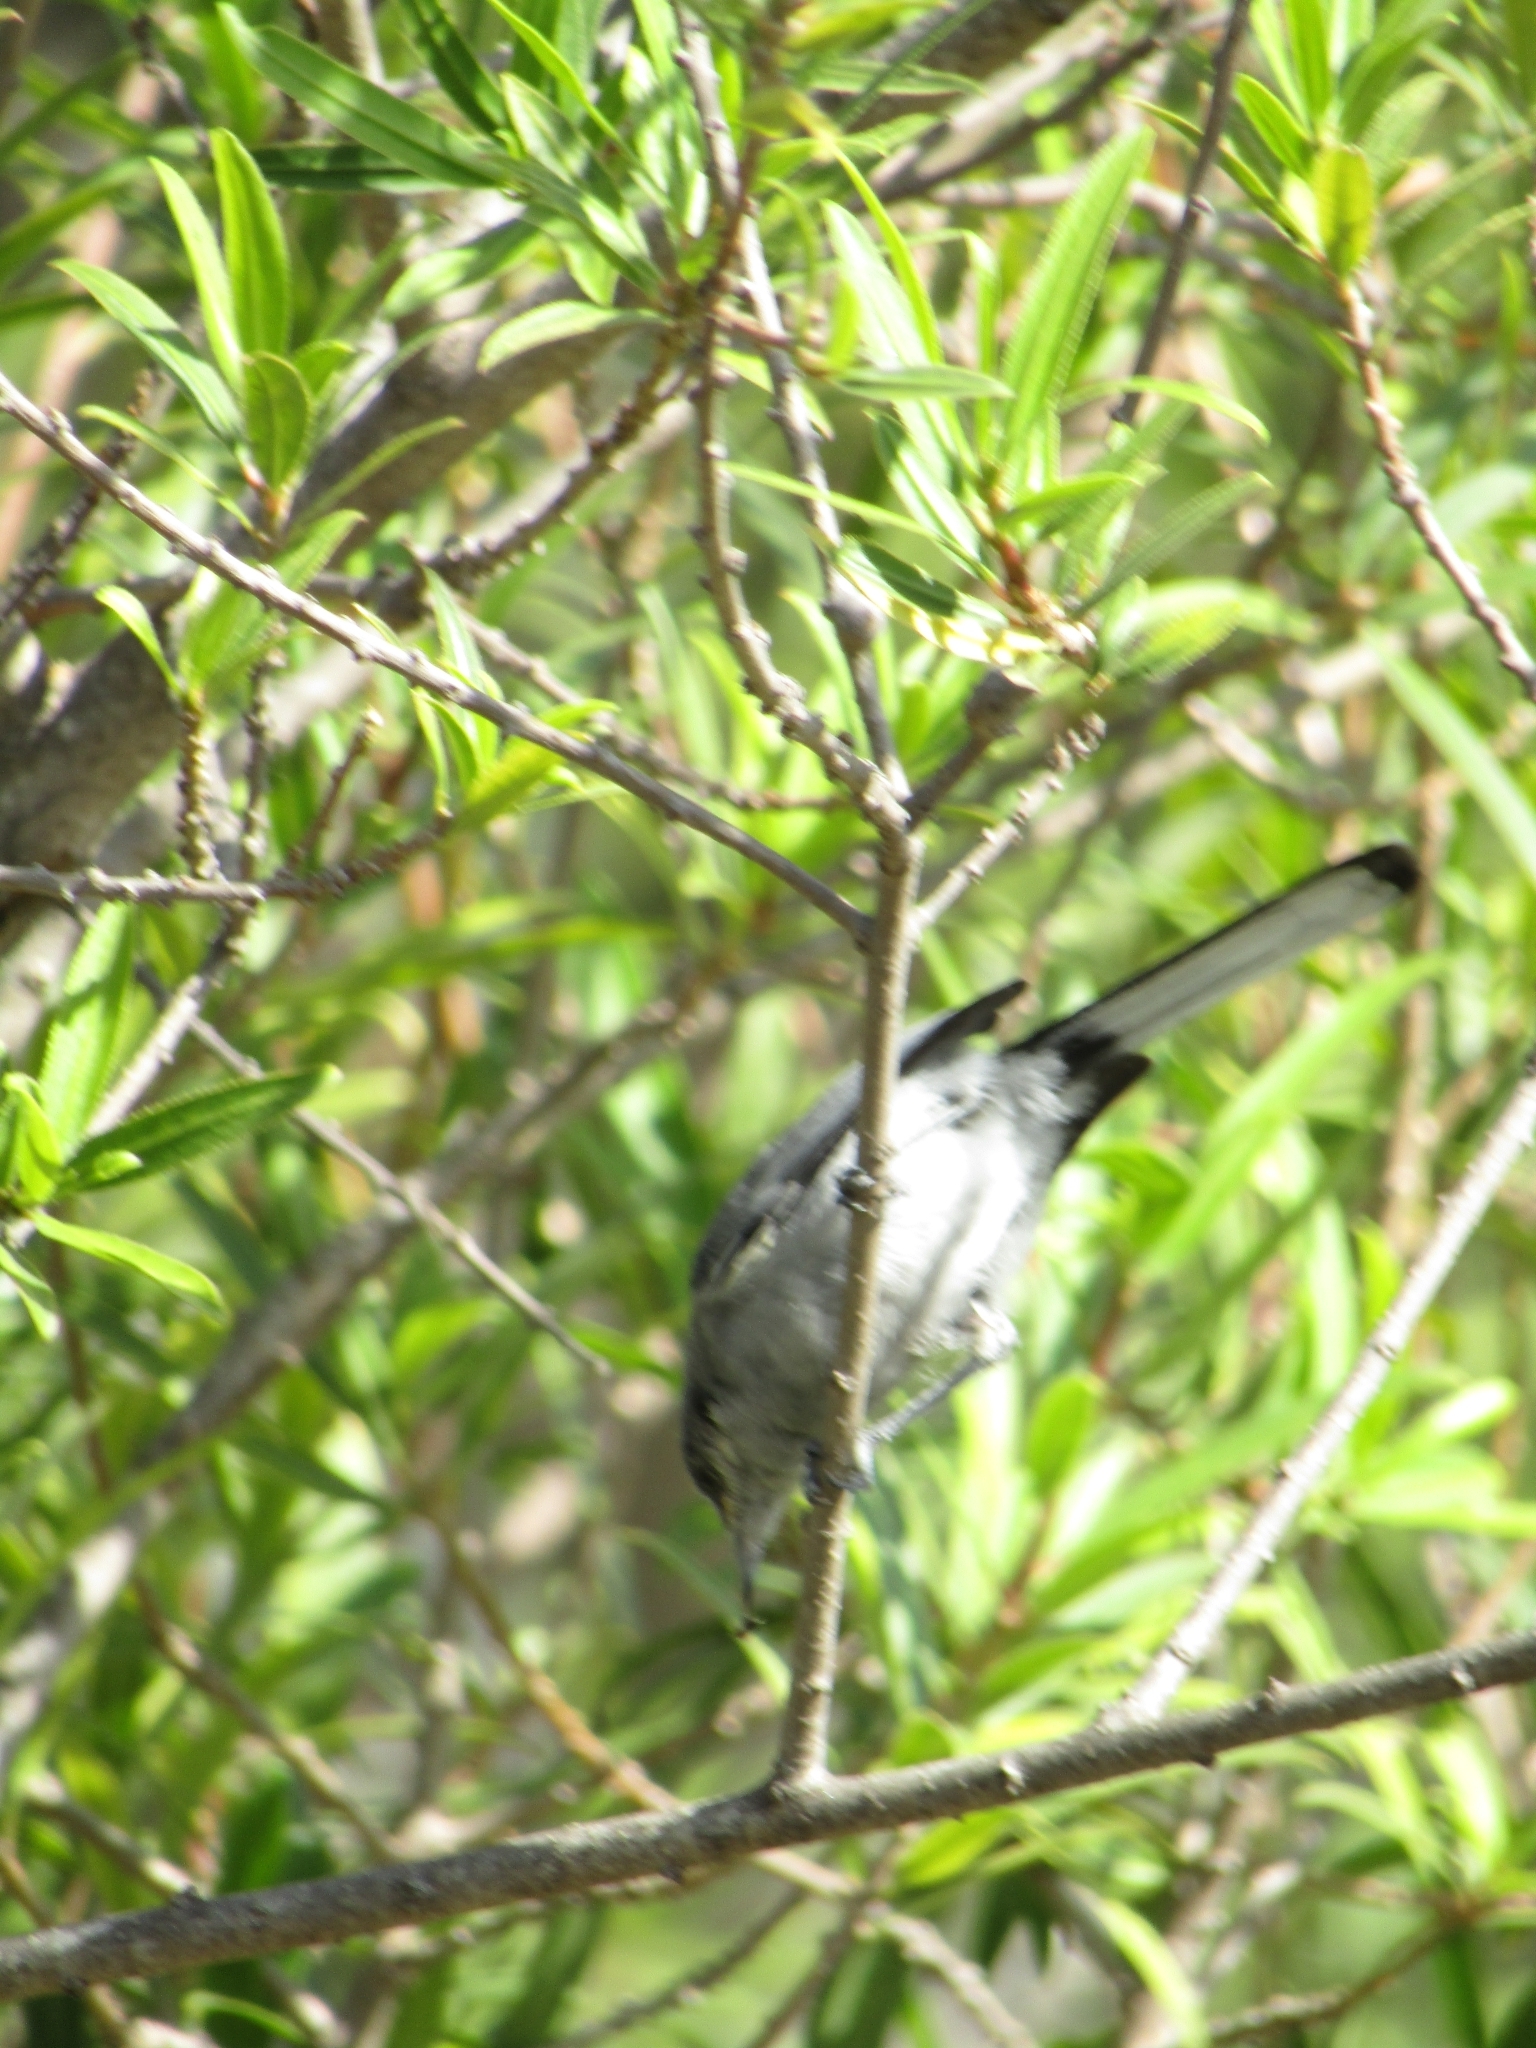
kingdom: Animalia
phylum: Chordata
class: Aves
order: Passeriformes
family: Polioptilidae
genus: Polioptila
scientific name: Polioptila dumicola
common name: Masked gnatcatcher
